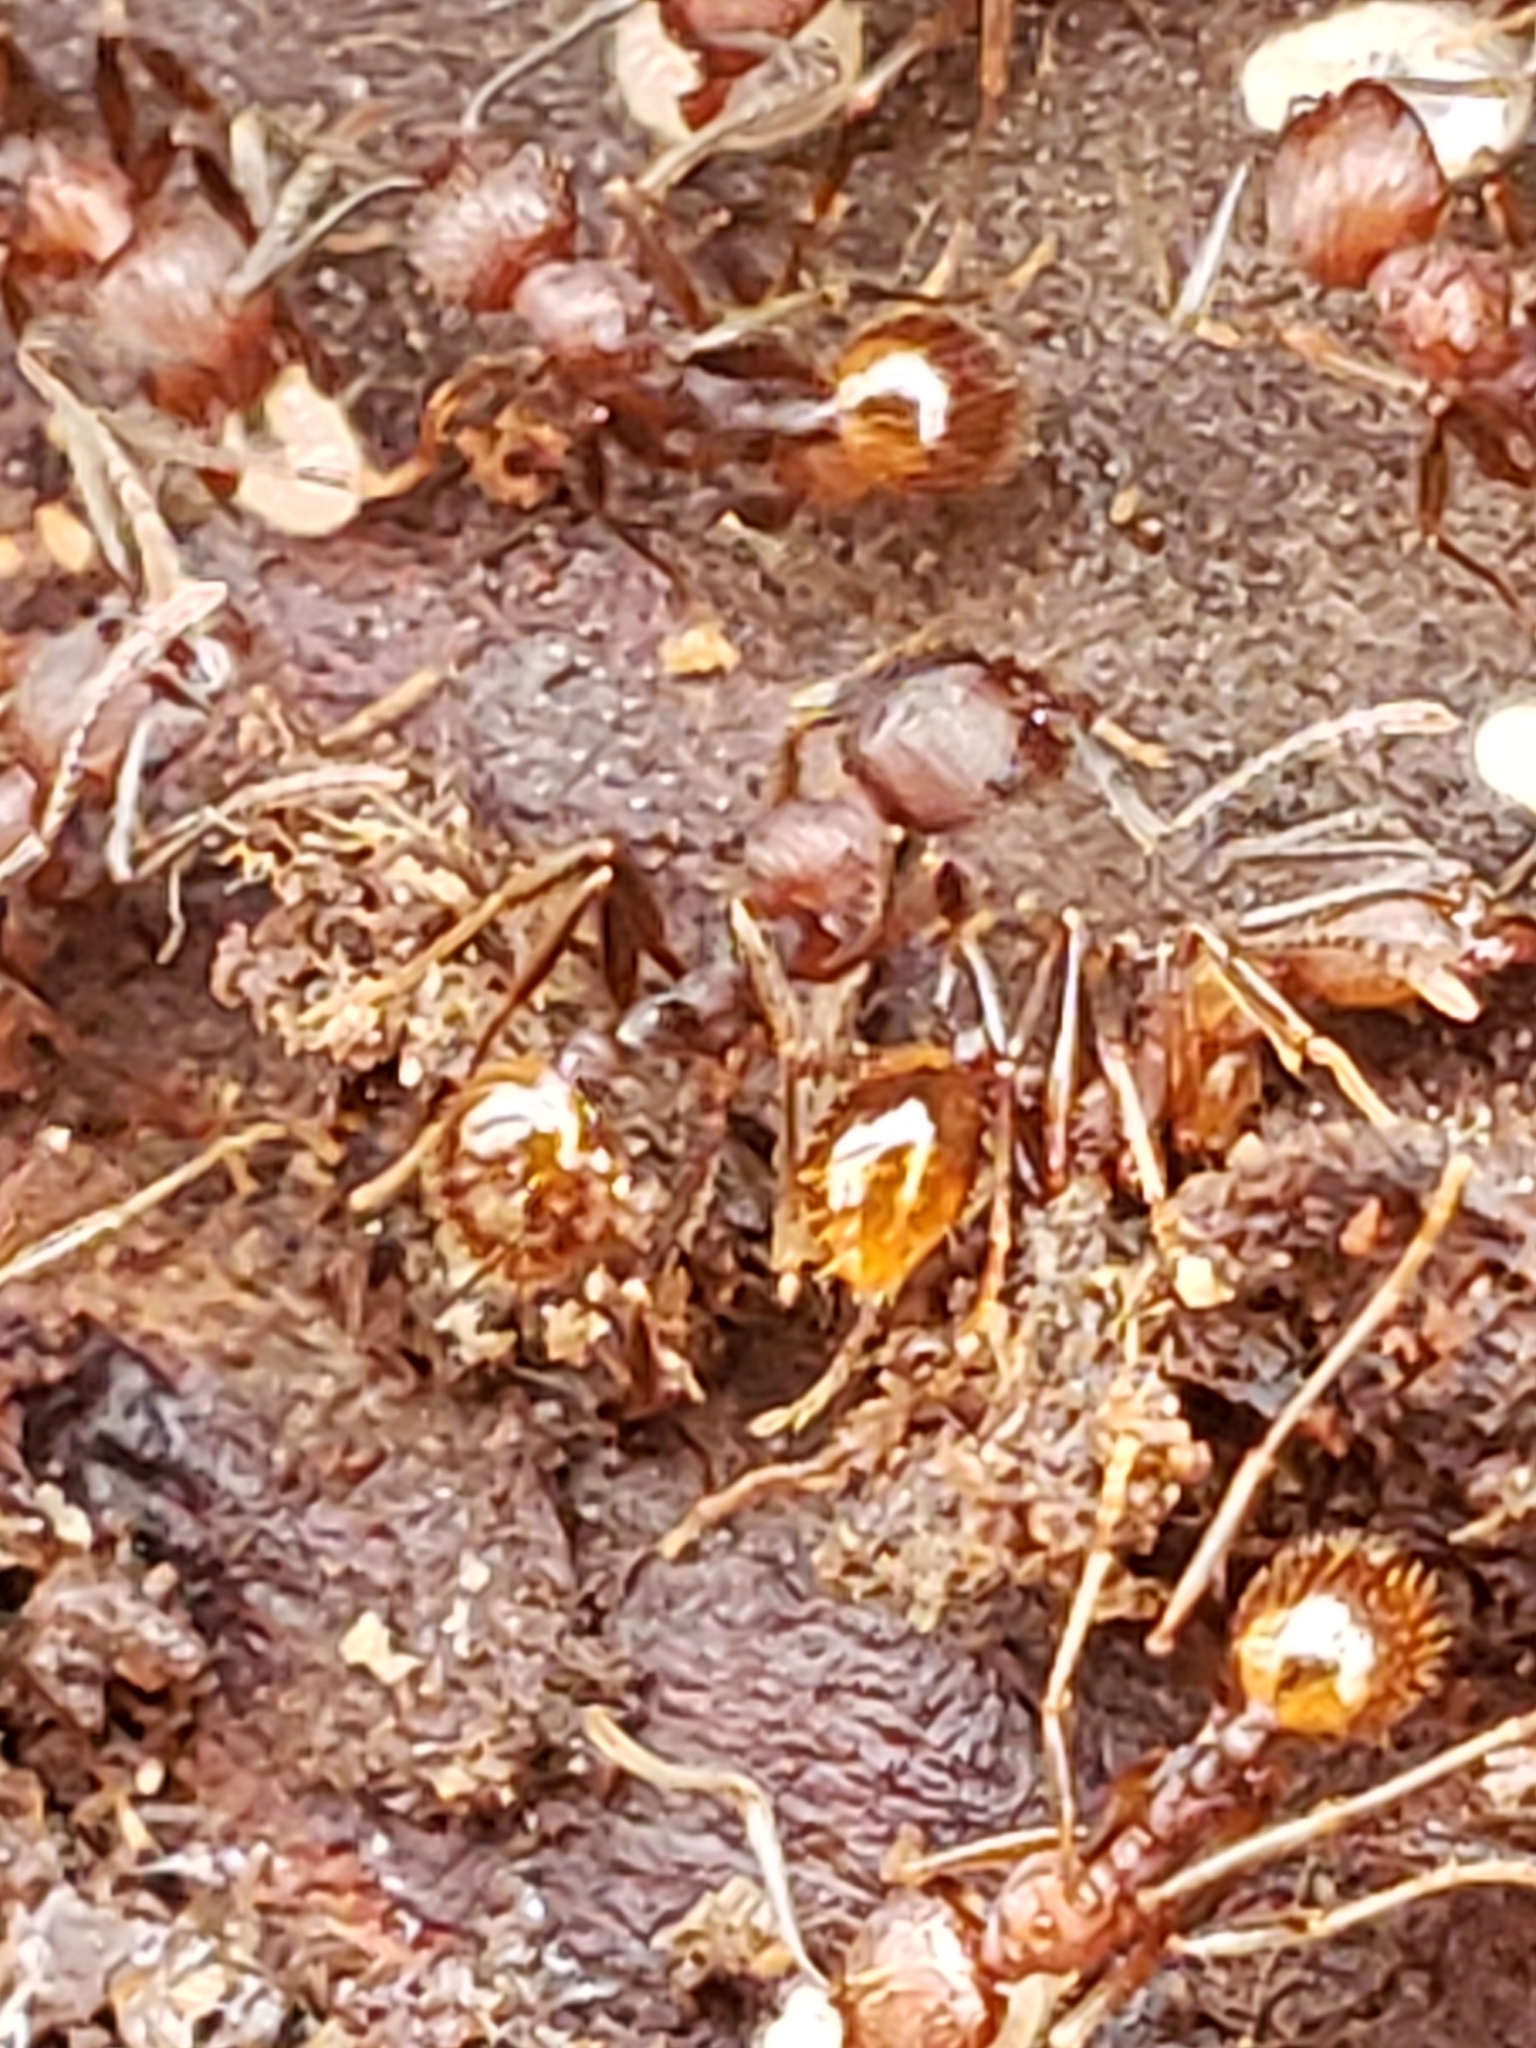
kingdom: Animalia
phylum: Arthropoda
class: Insecta
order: Hymenoptera
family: Formicidae
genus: Aphaenogaster
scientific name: Aphaenogaster fulva
